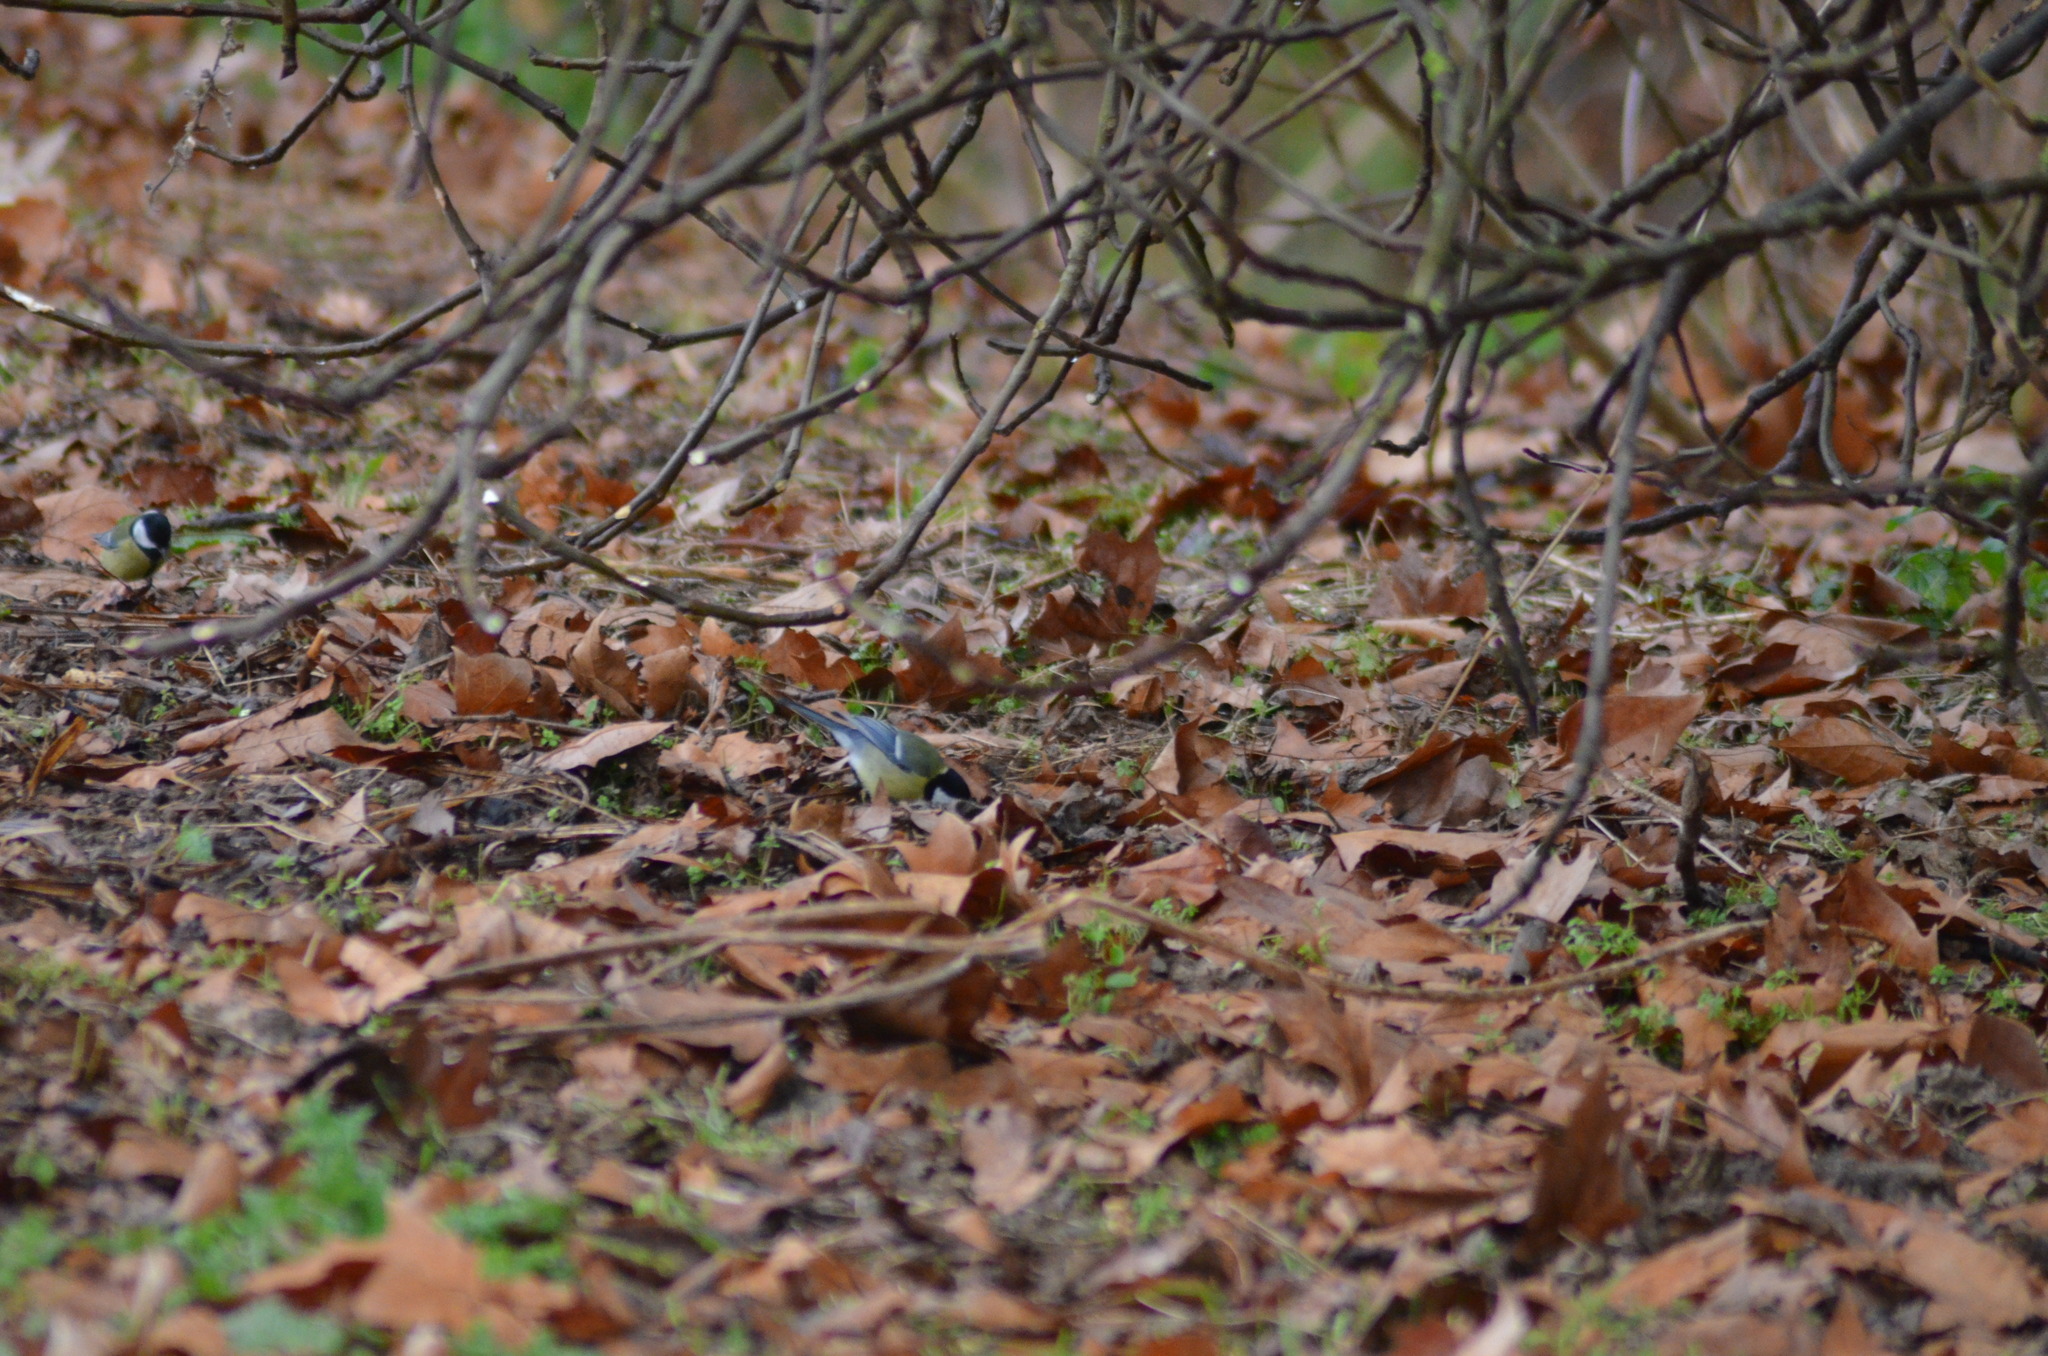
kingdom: Animalia
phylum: Chordata
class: Aves
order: Passeriformes
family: Paridae
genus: Parus
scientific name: Parus major
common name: Great tit
